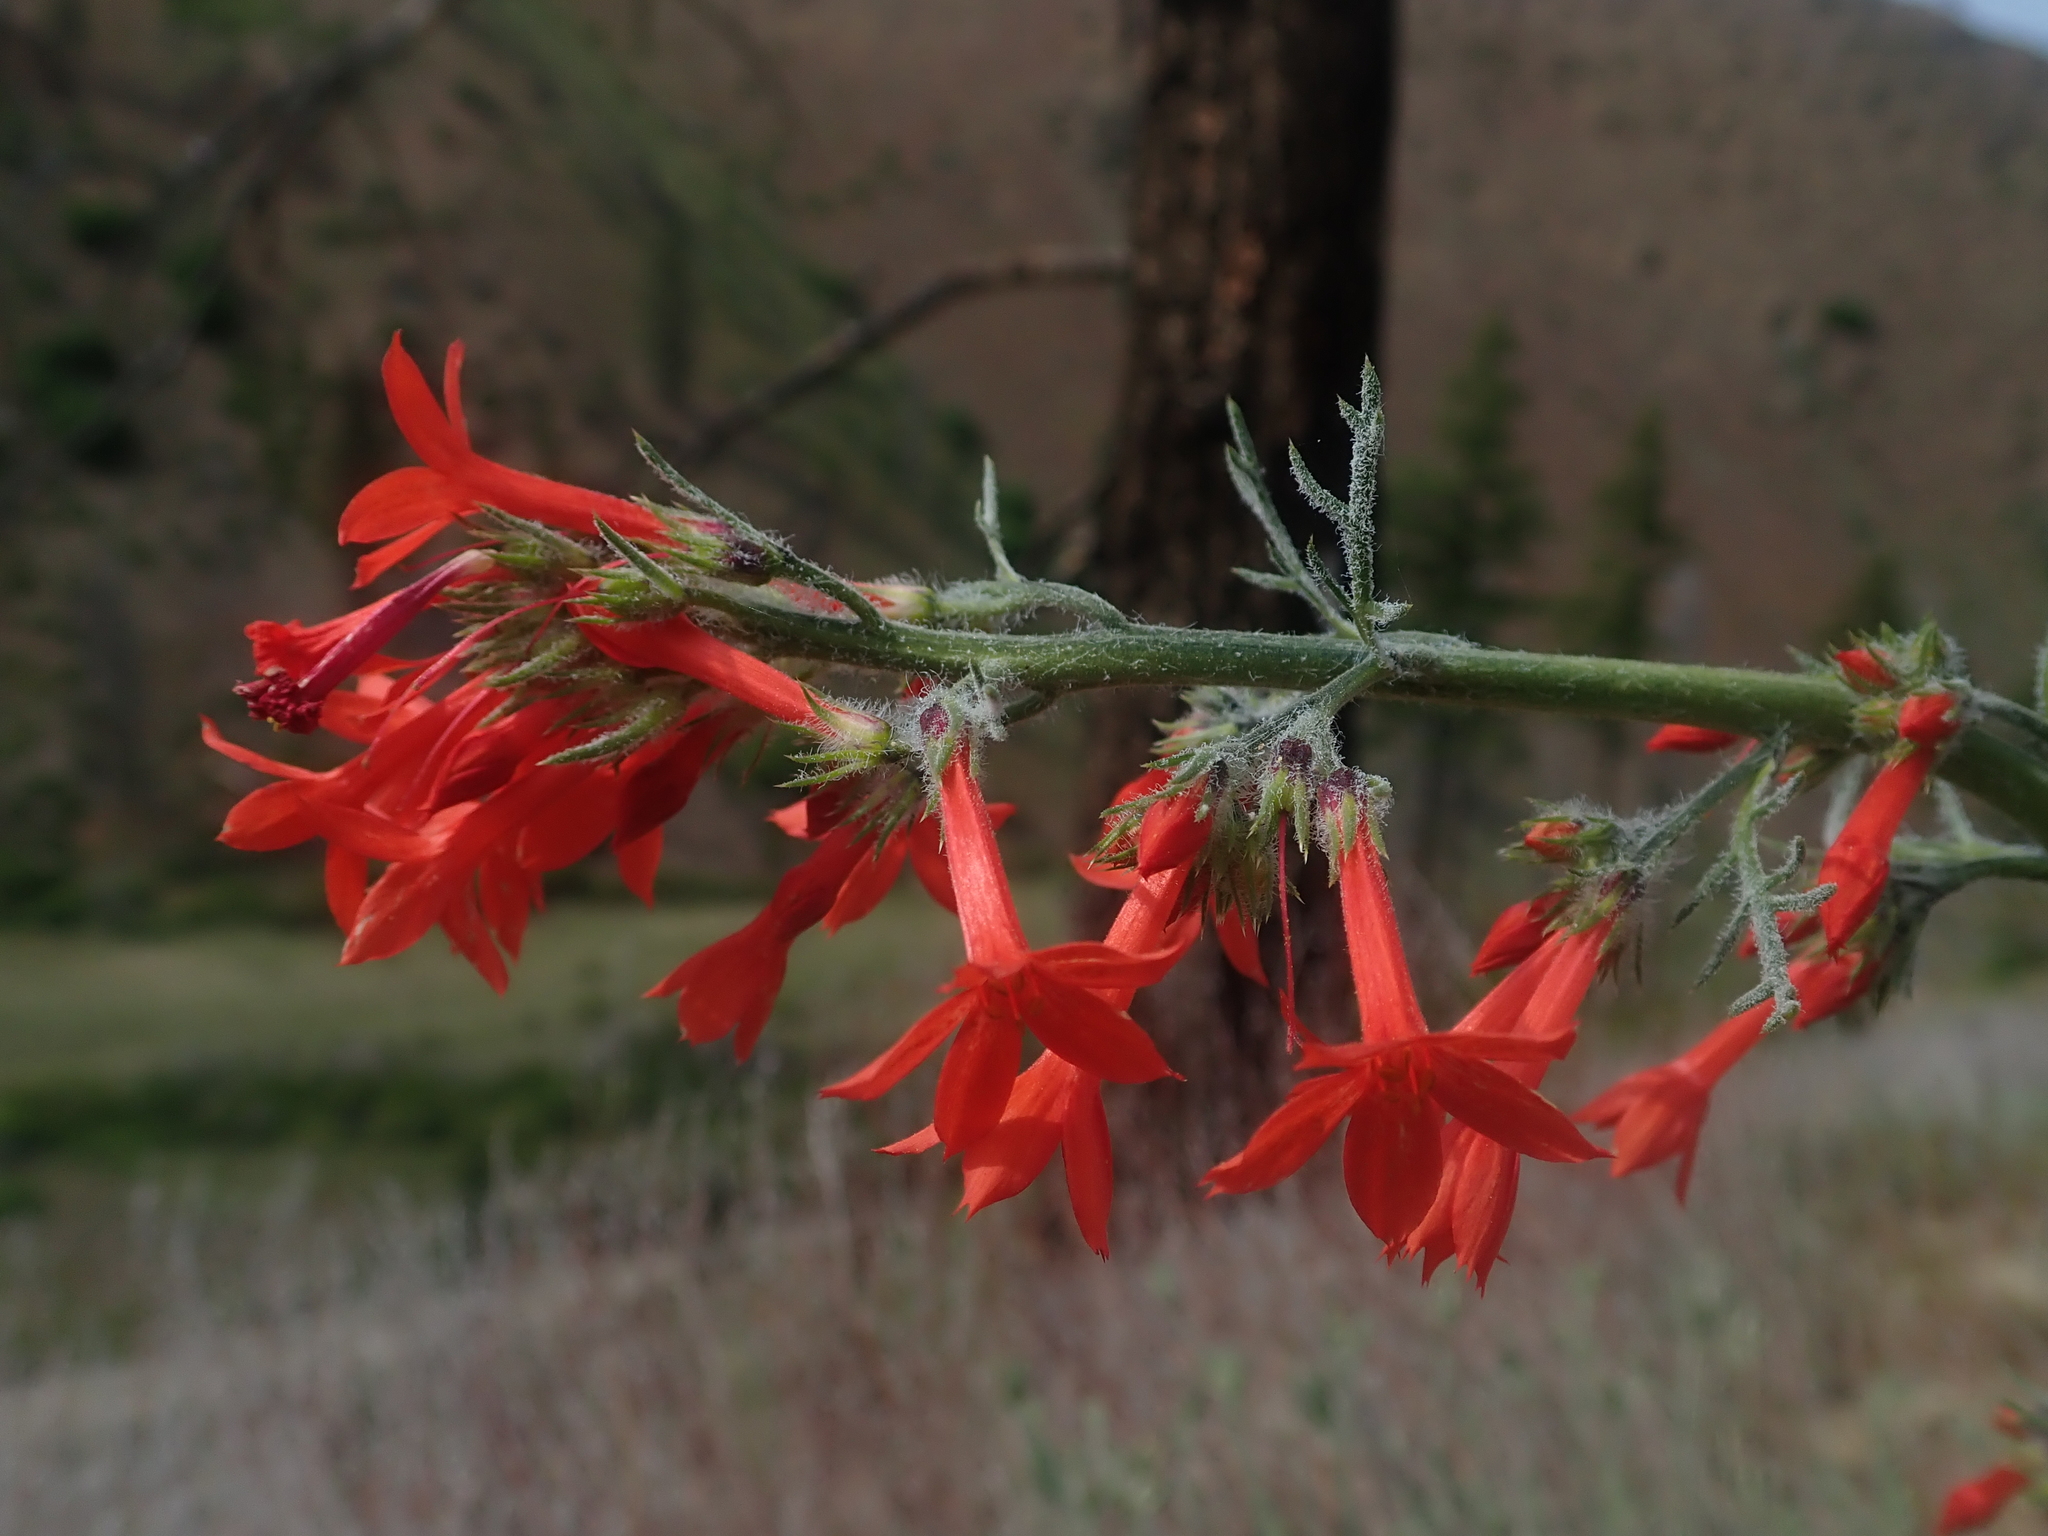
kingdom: Plantae
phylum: Tracheophyta
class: Magnoliopsida
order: Ericales
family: Polemoniaceae
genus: Ipomopsis
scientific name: Ipomopsis aggregata
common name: Scarlet gilia
